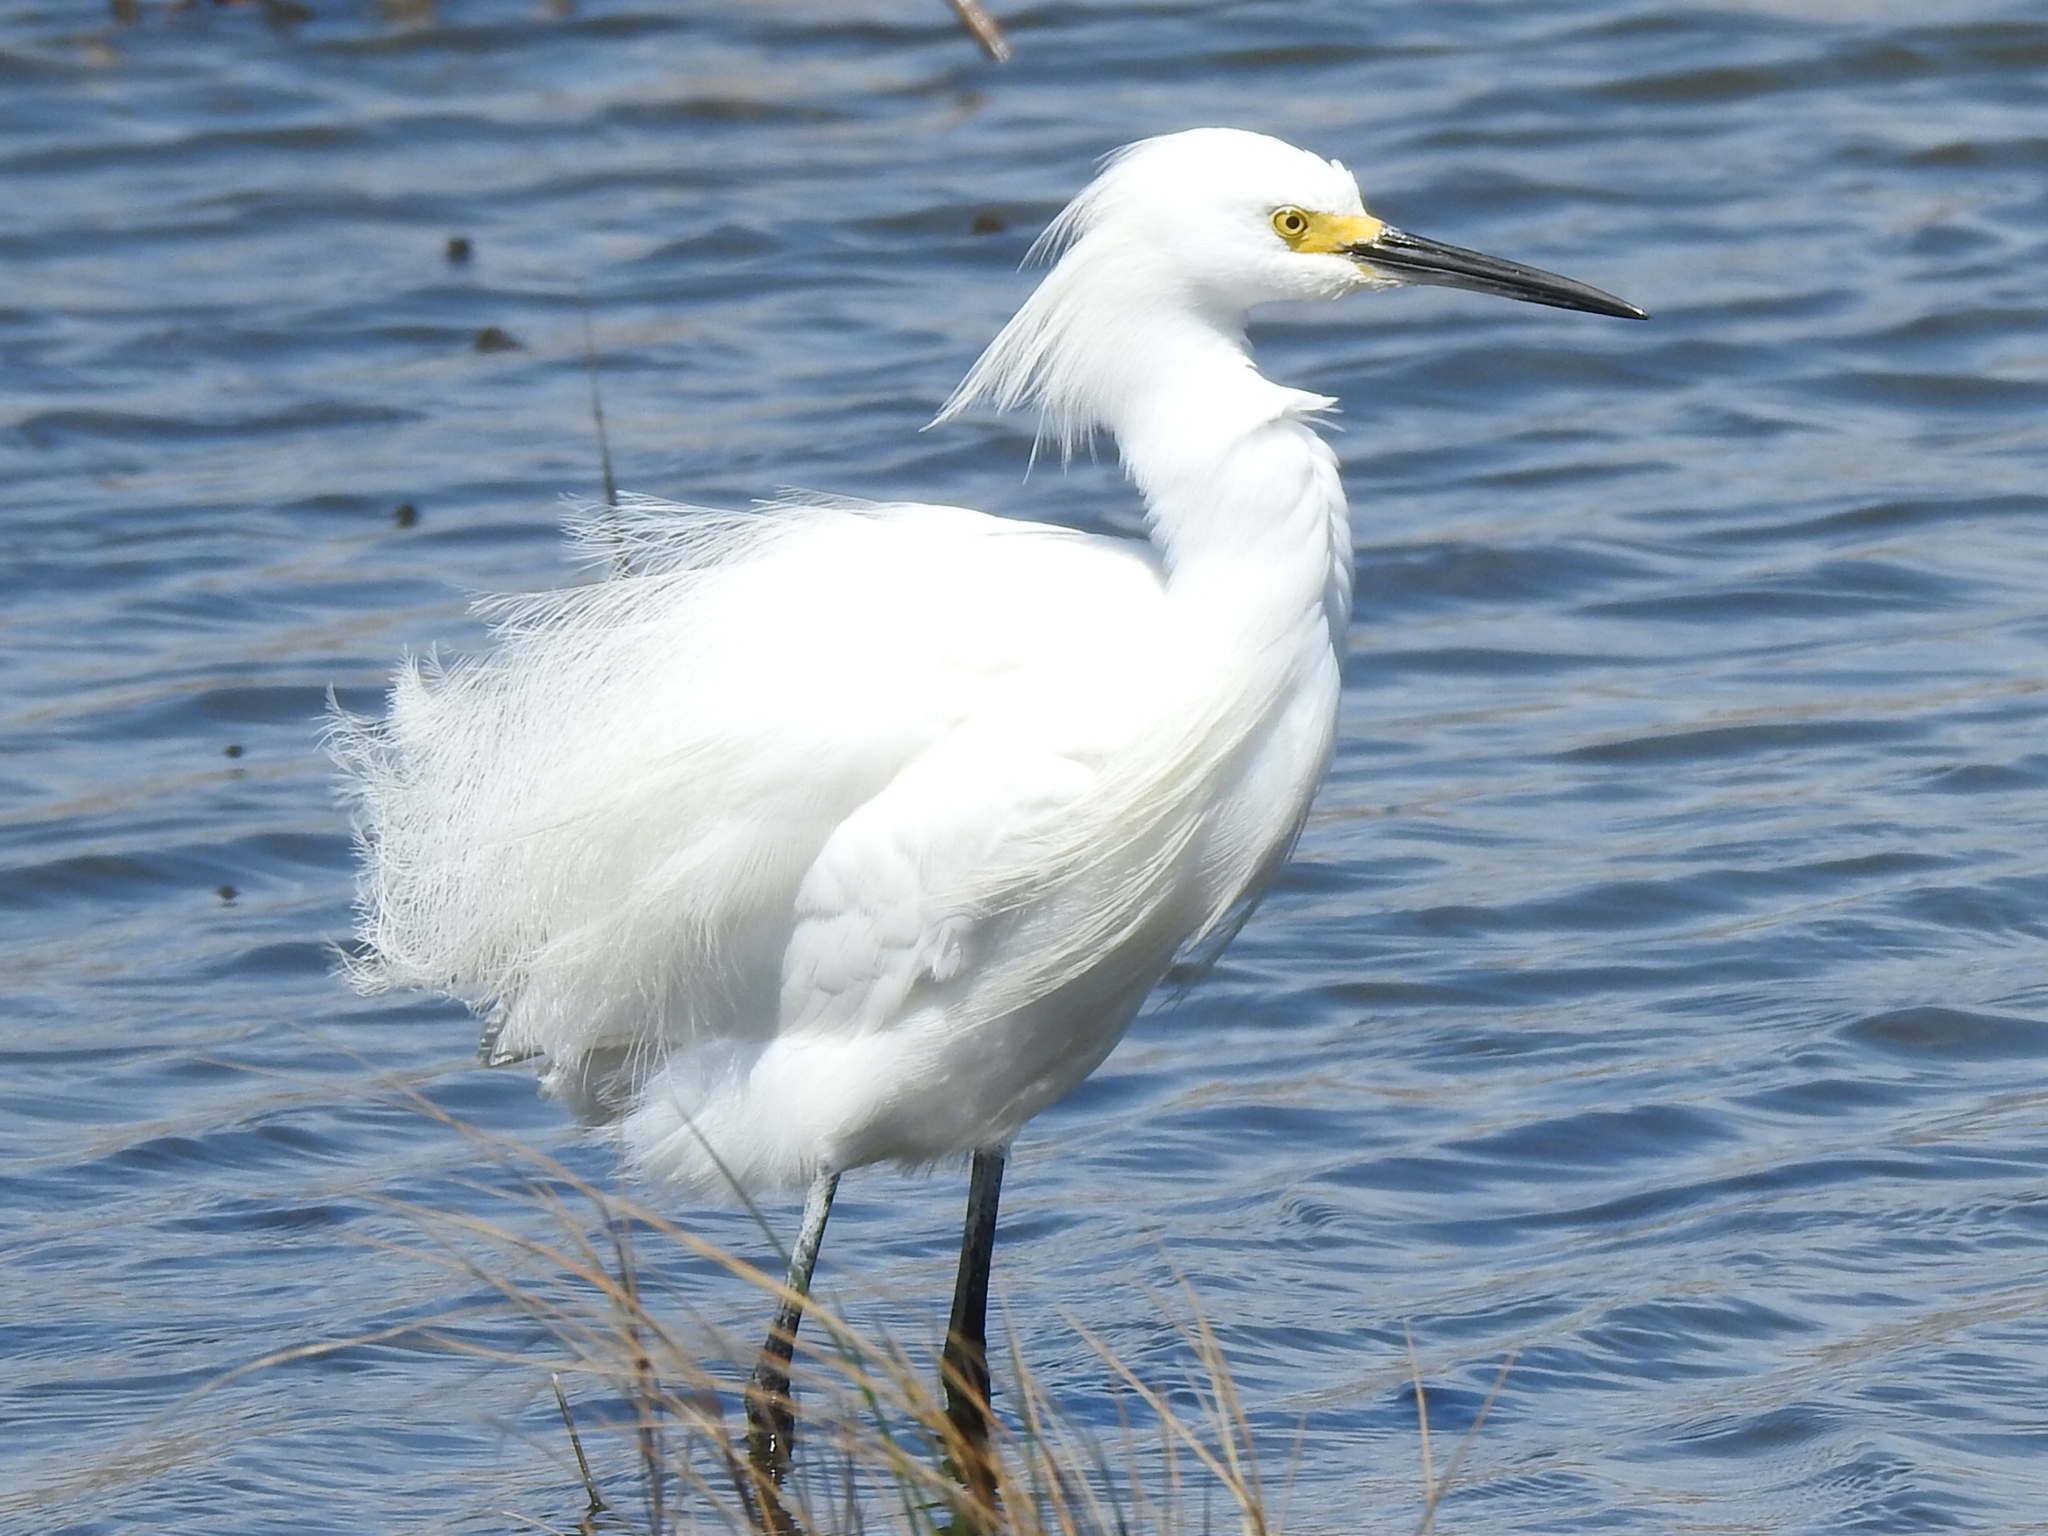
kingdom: Animalia
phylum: Chordata
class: Aves
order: Pelecaniformes
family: Ardeidae
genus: Egretta
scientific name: Egretta thula
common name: Snowy egret
